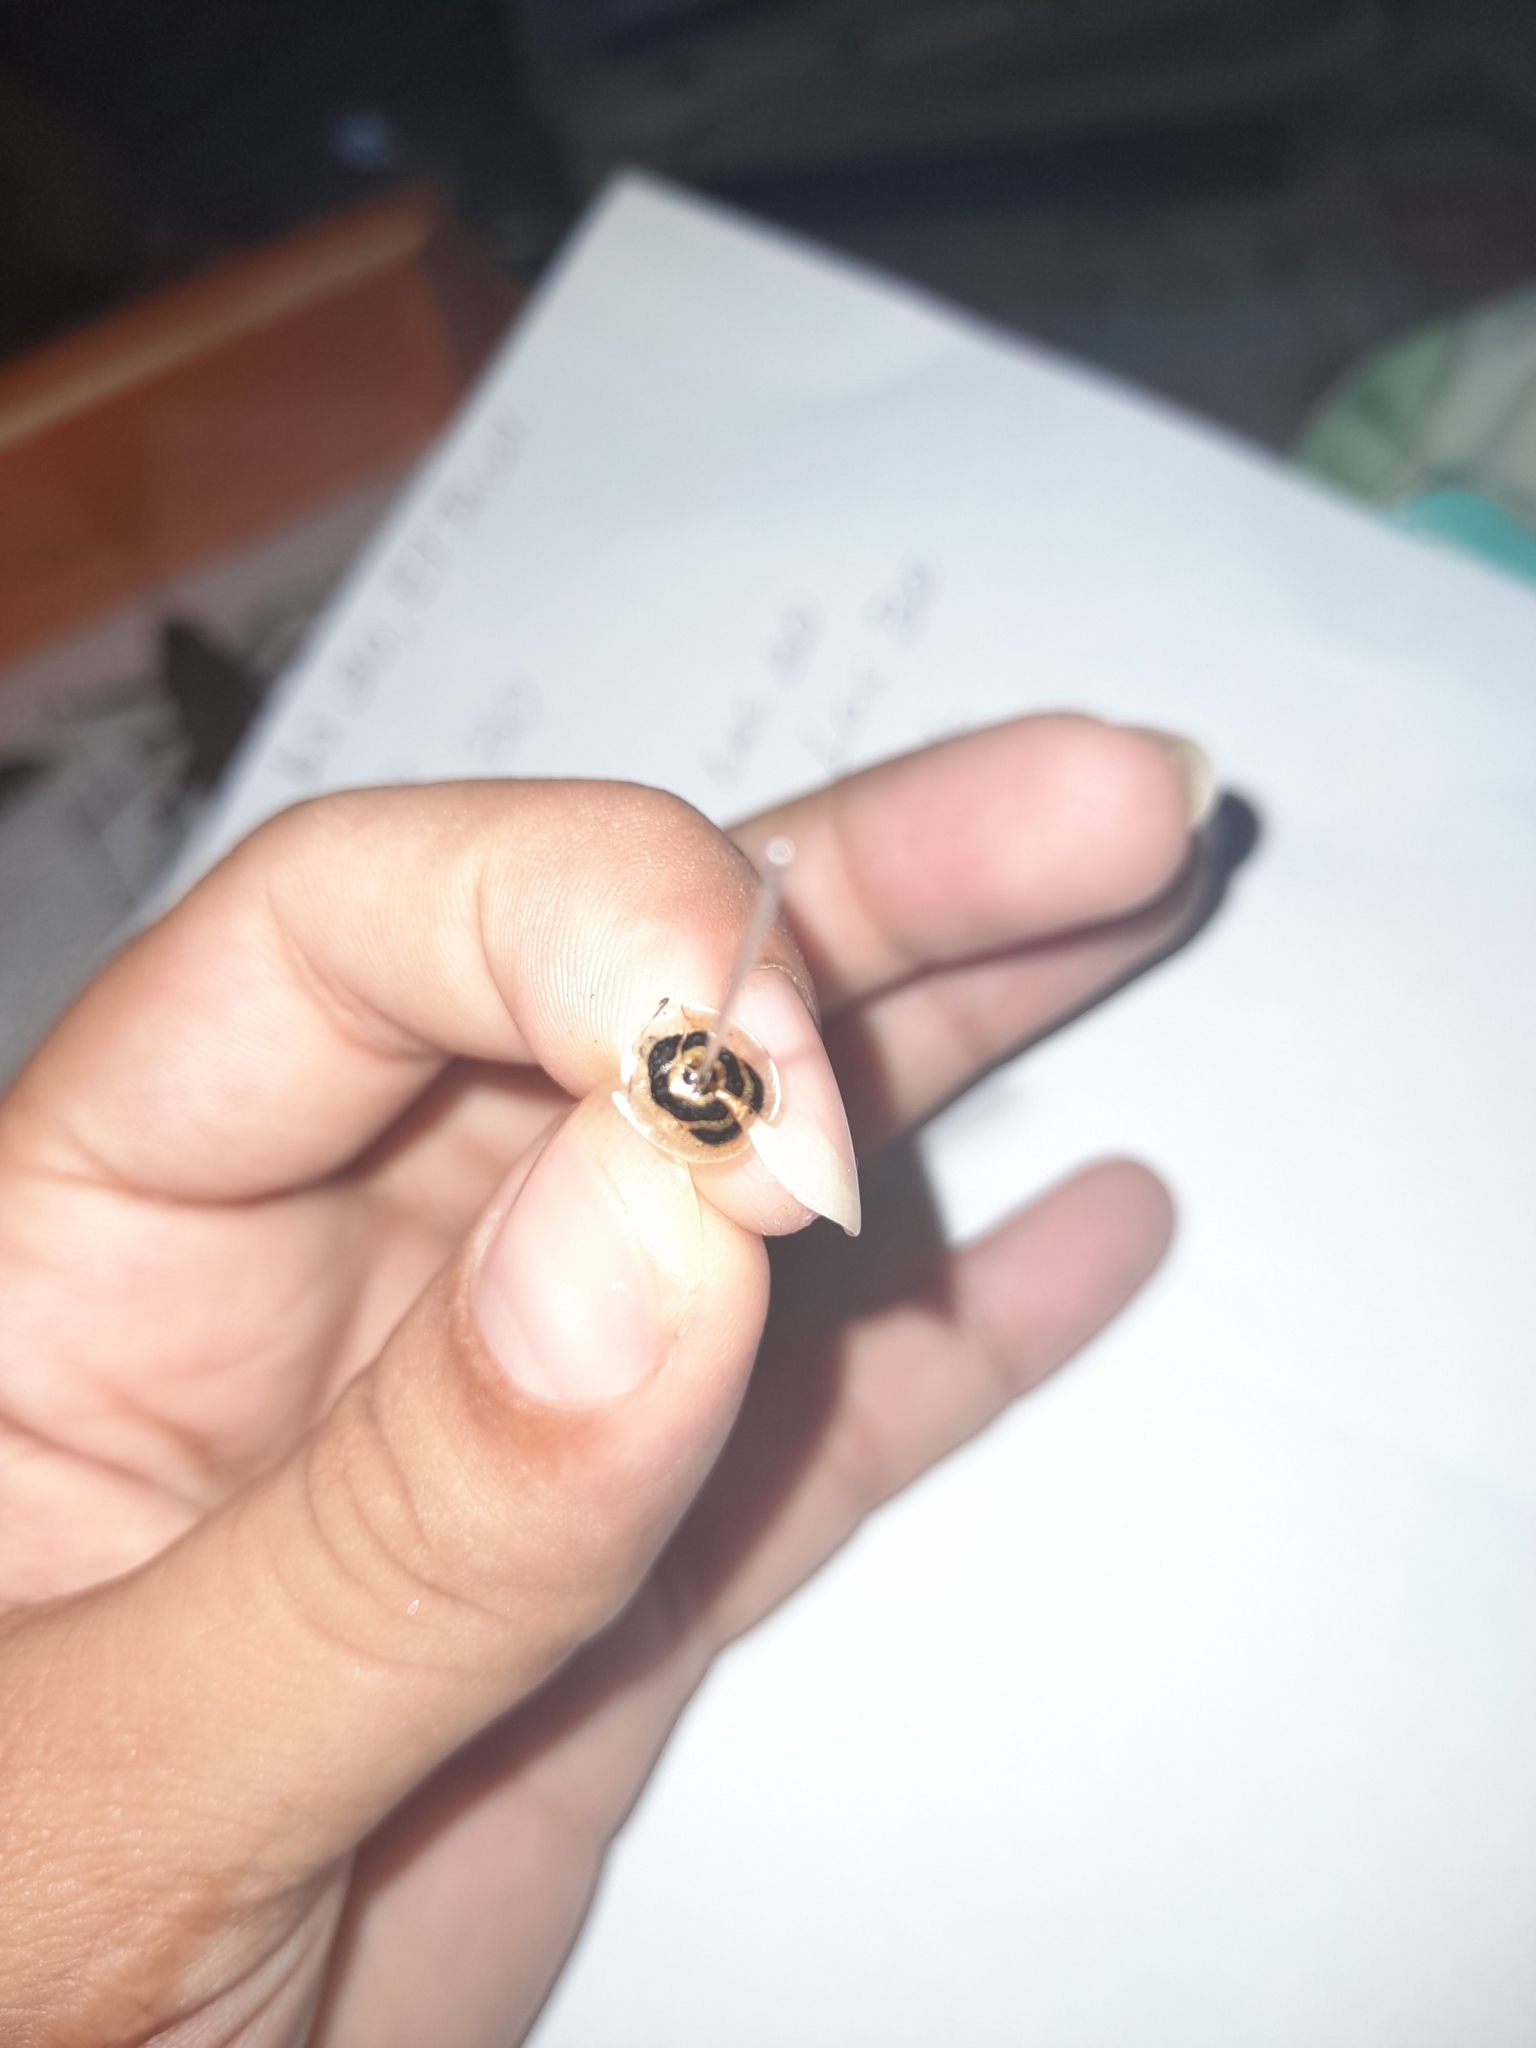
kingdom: Animalia
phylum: Arthropoda
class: Insecta
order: Coleoptera
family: Chrysomelidae
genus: Ischnocodia
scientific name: Ischnocodia annulus
